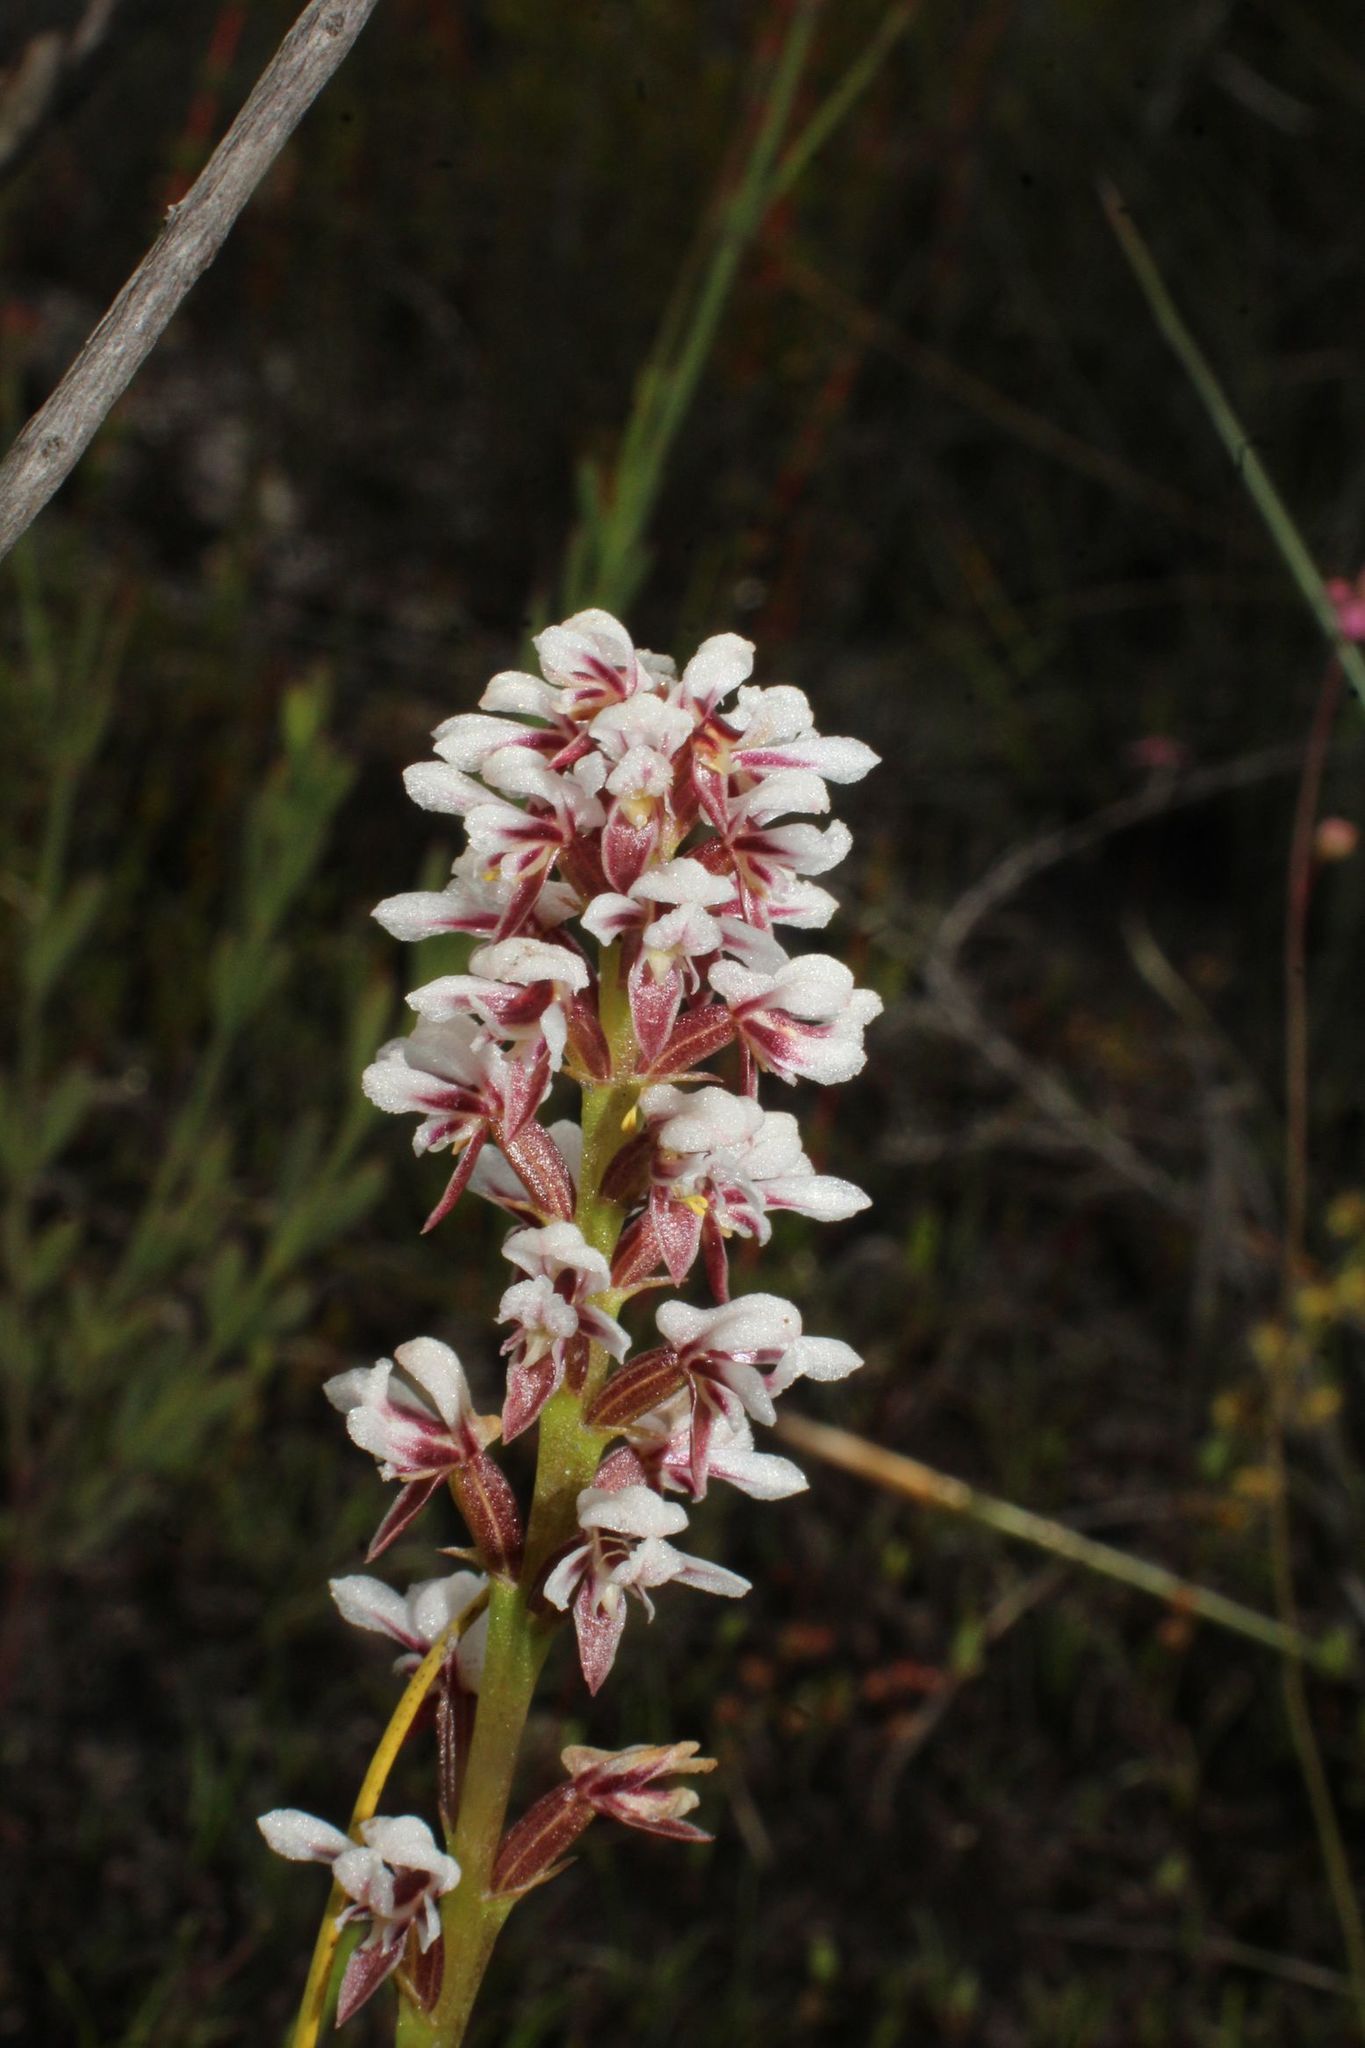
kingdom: Plantae
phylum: Tracheophyta
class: Liliopsida
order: Asparagales
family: Orchidaceae
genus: Prasophyllum
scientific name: Prasophyllum gibbosum
